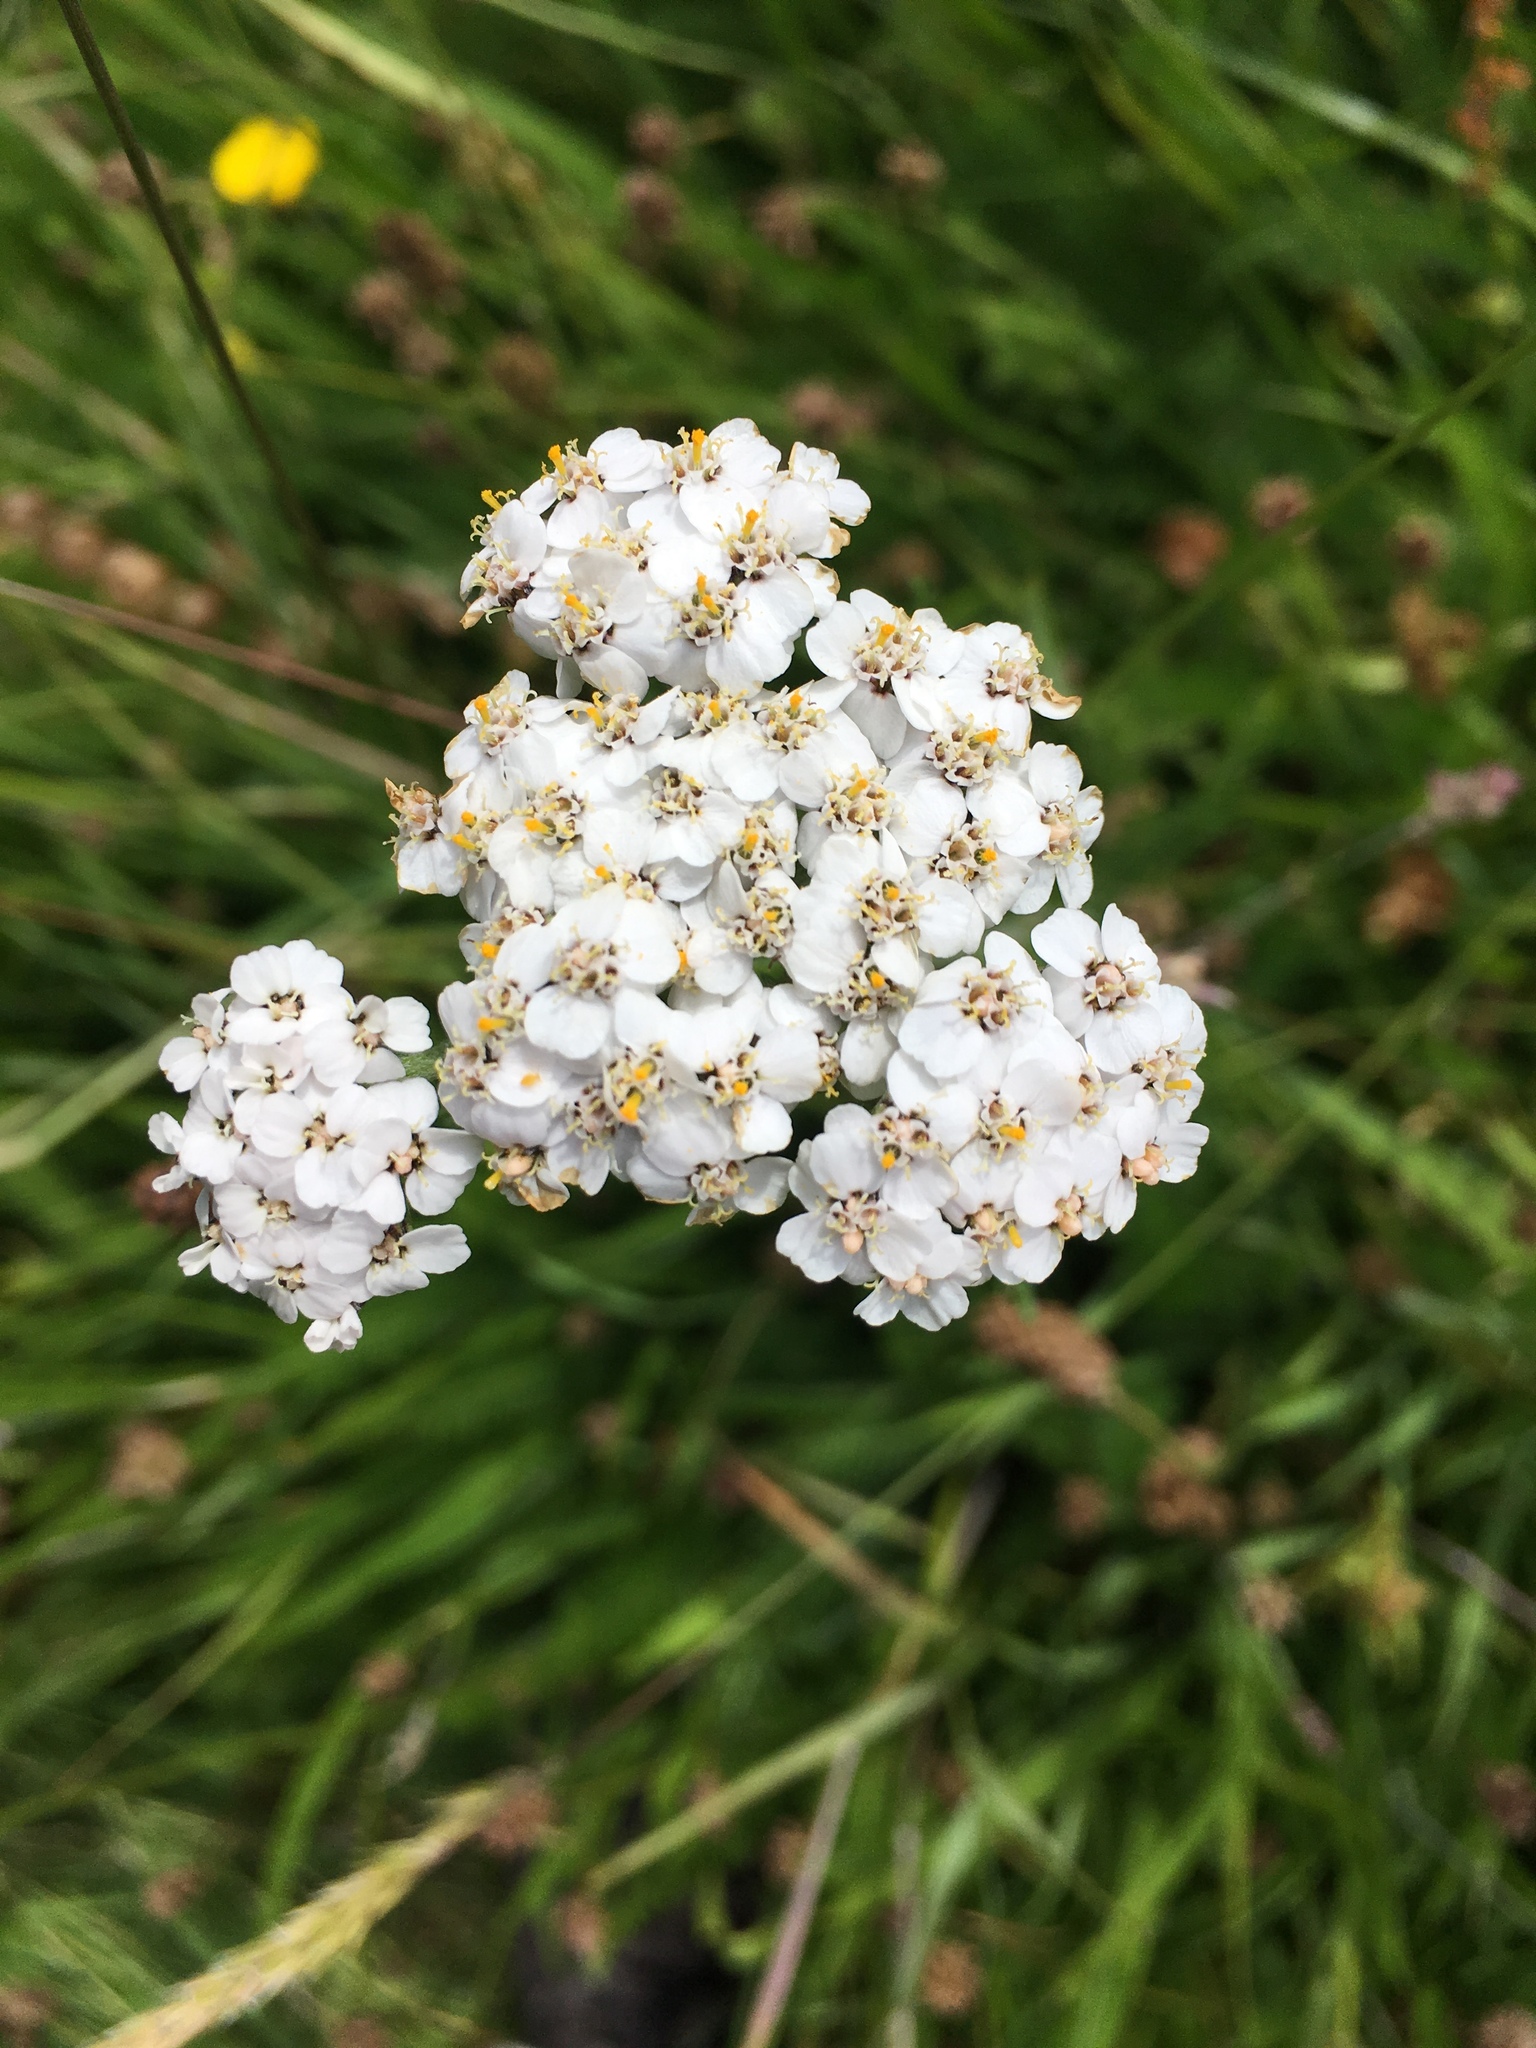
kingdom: Plantae
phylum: Tracheophyta
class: Magnoliopsida
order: Asterales
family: Asteraceae
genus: Achillea
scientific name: Achillea millefolium
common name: Yarrow
